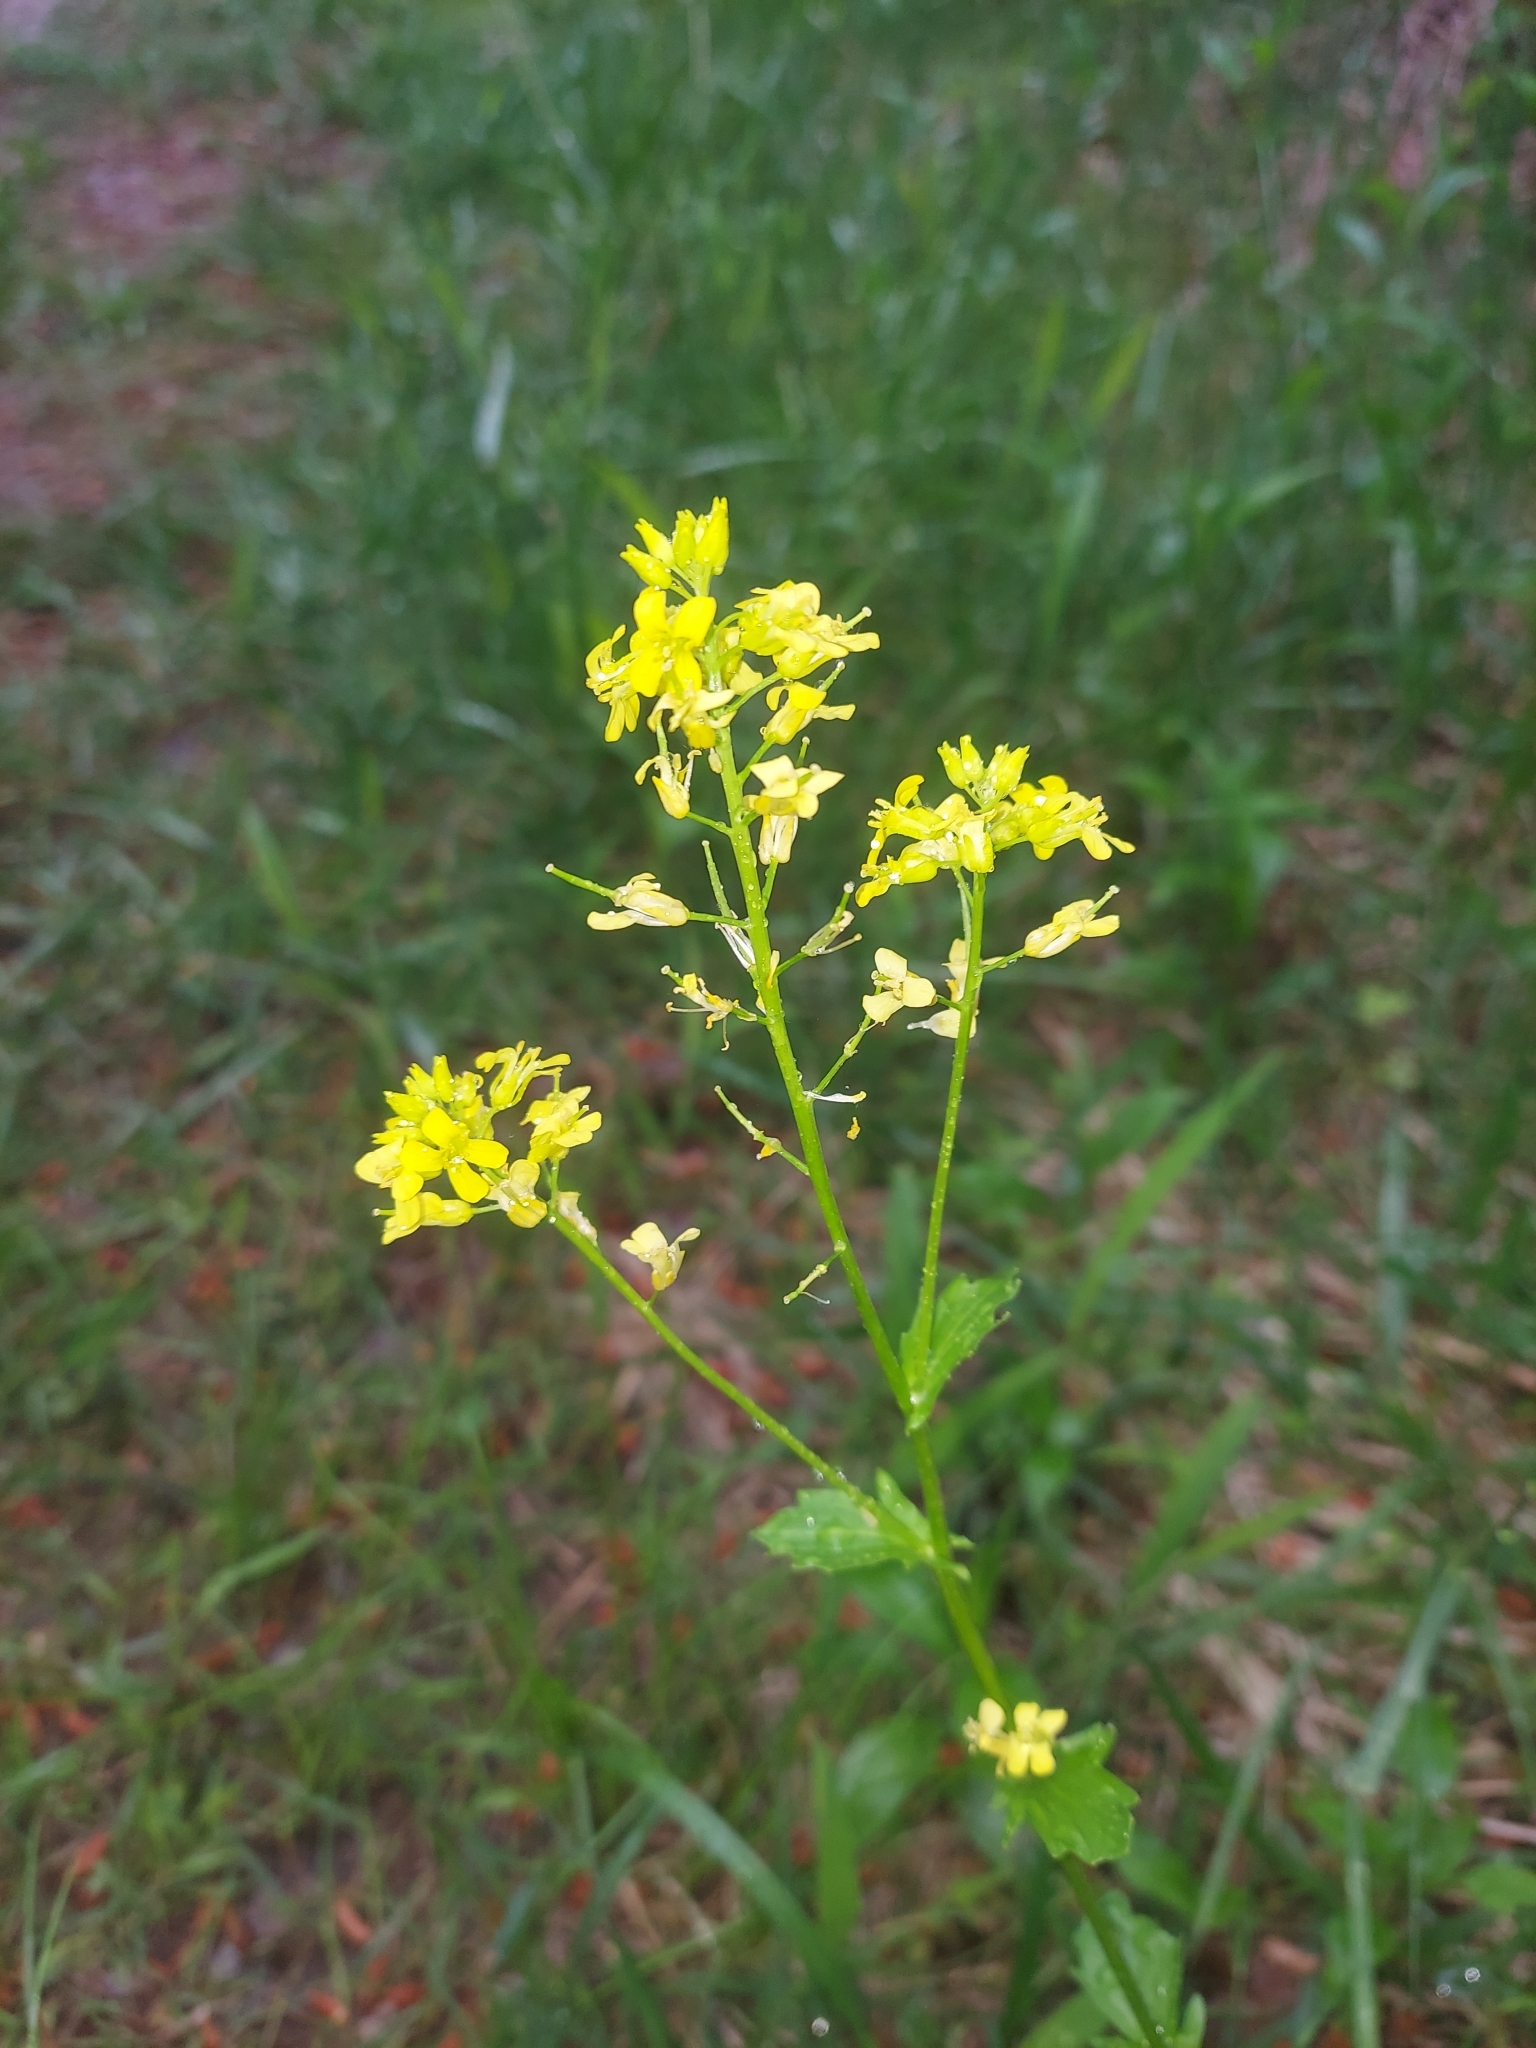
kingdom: Plantae
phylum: Tracheophyta
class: Magnoliopsida
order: Brassicales
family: Brassicaceae
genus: Barbarea
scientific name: Barbarea vulgaris
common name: Cressy-greens
